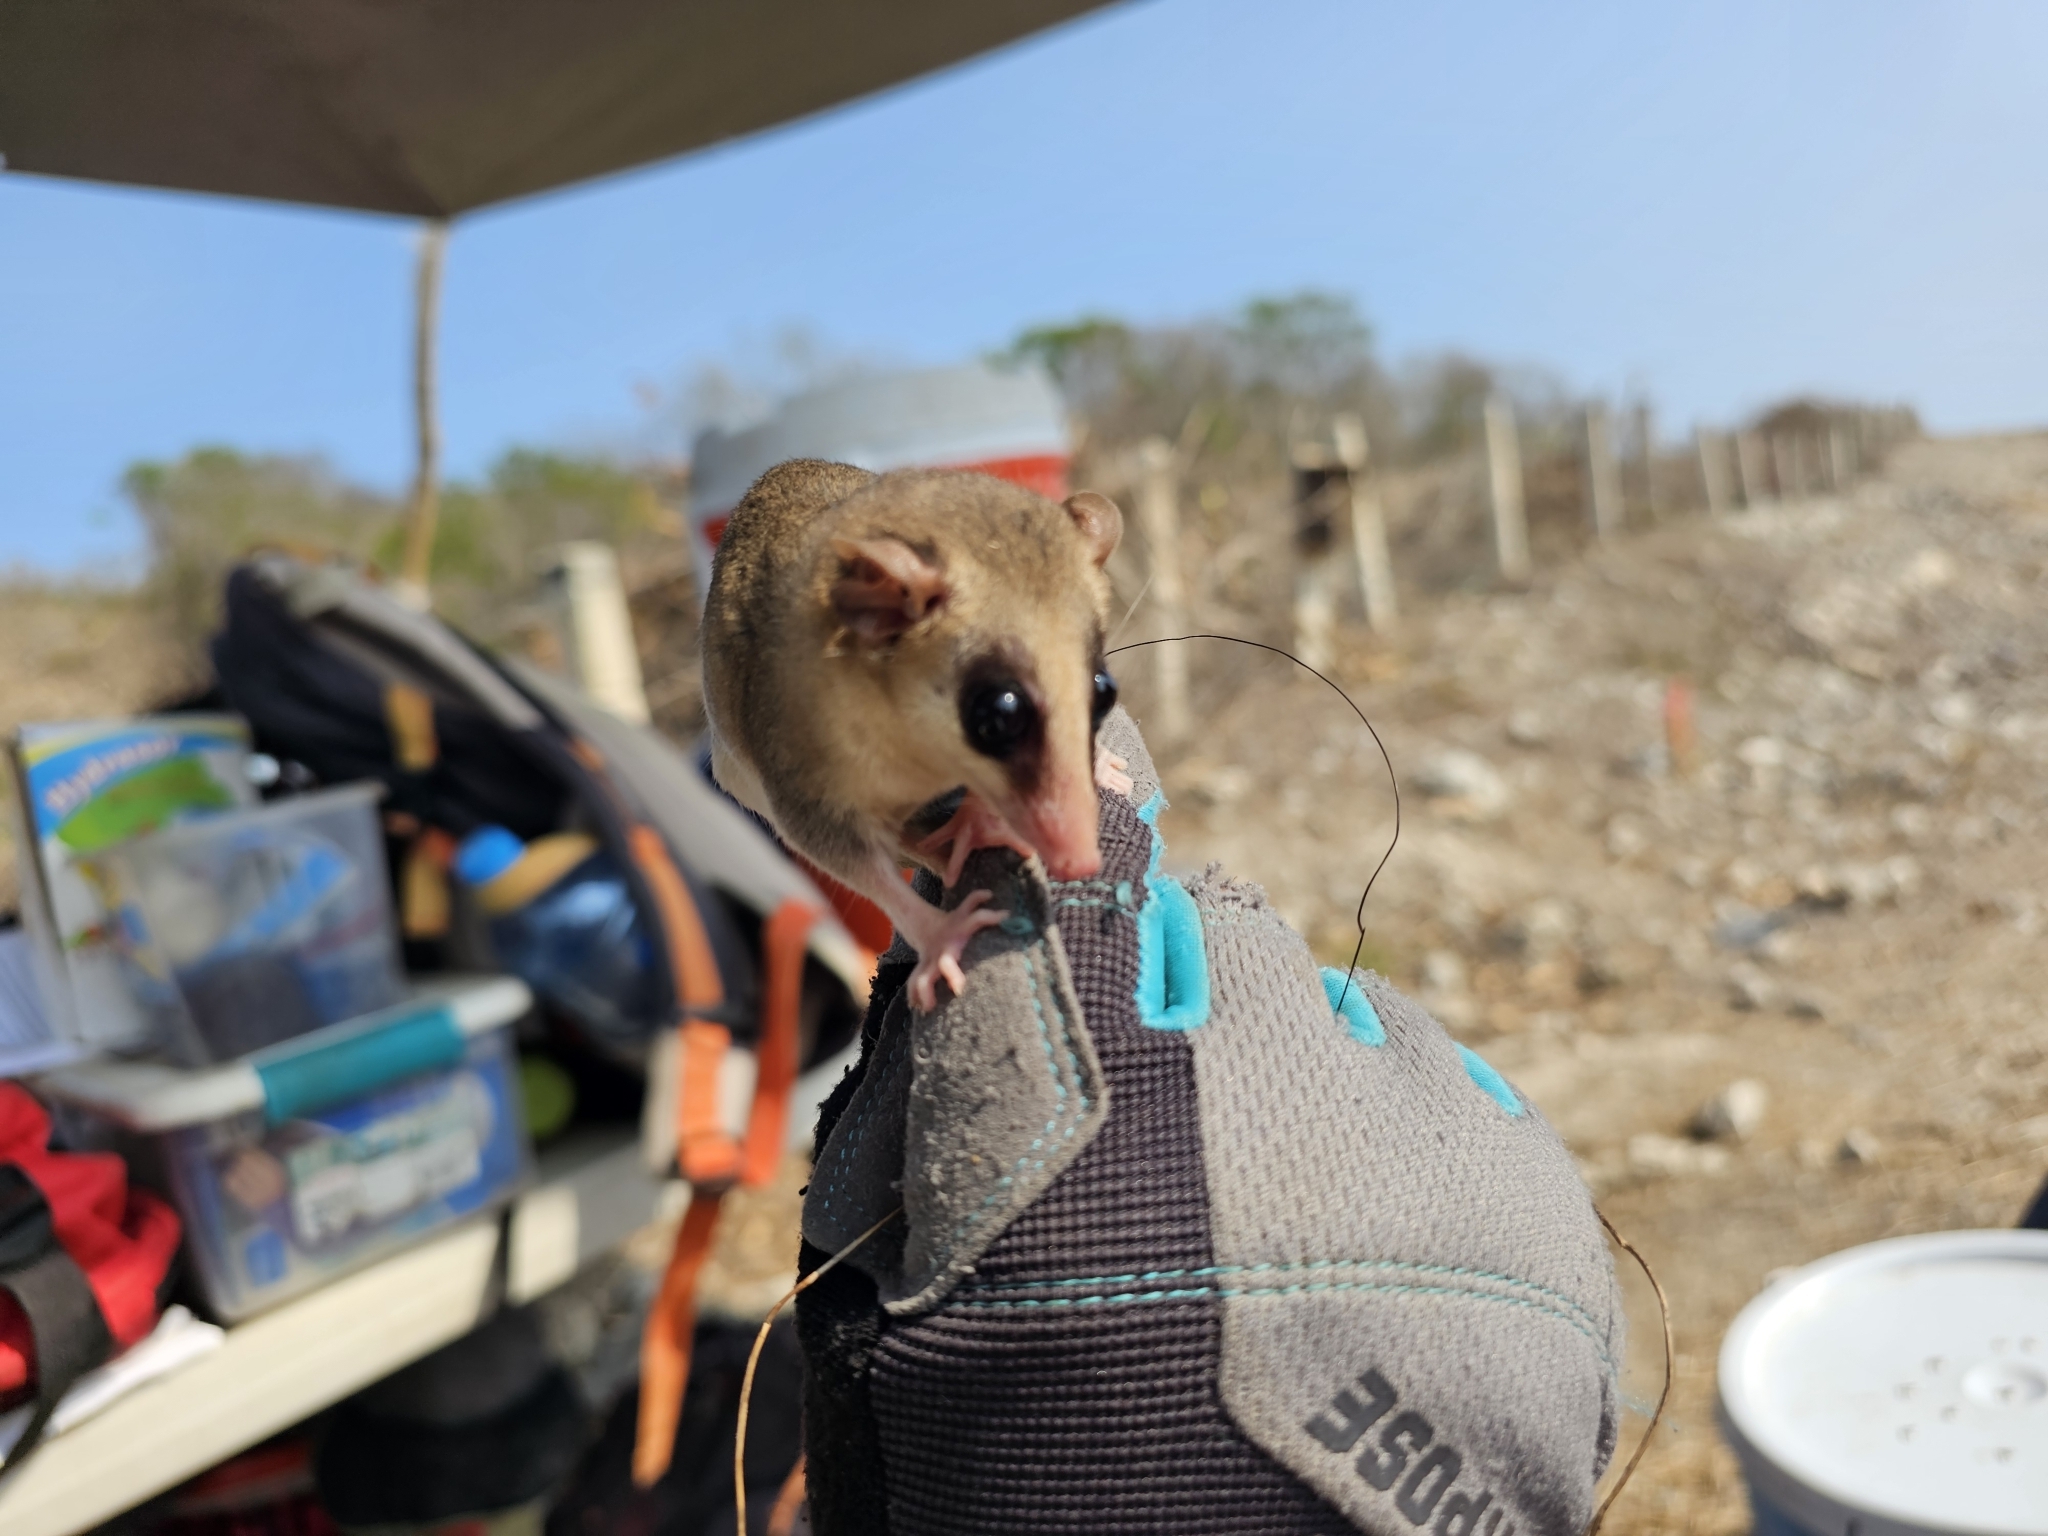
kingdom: Animalia
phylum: Chordata
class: Mammalia
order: Didelphimorphia
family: Didelphidae
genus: Tlacuatzin
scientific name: Tlacuatzin
